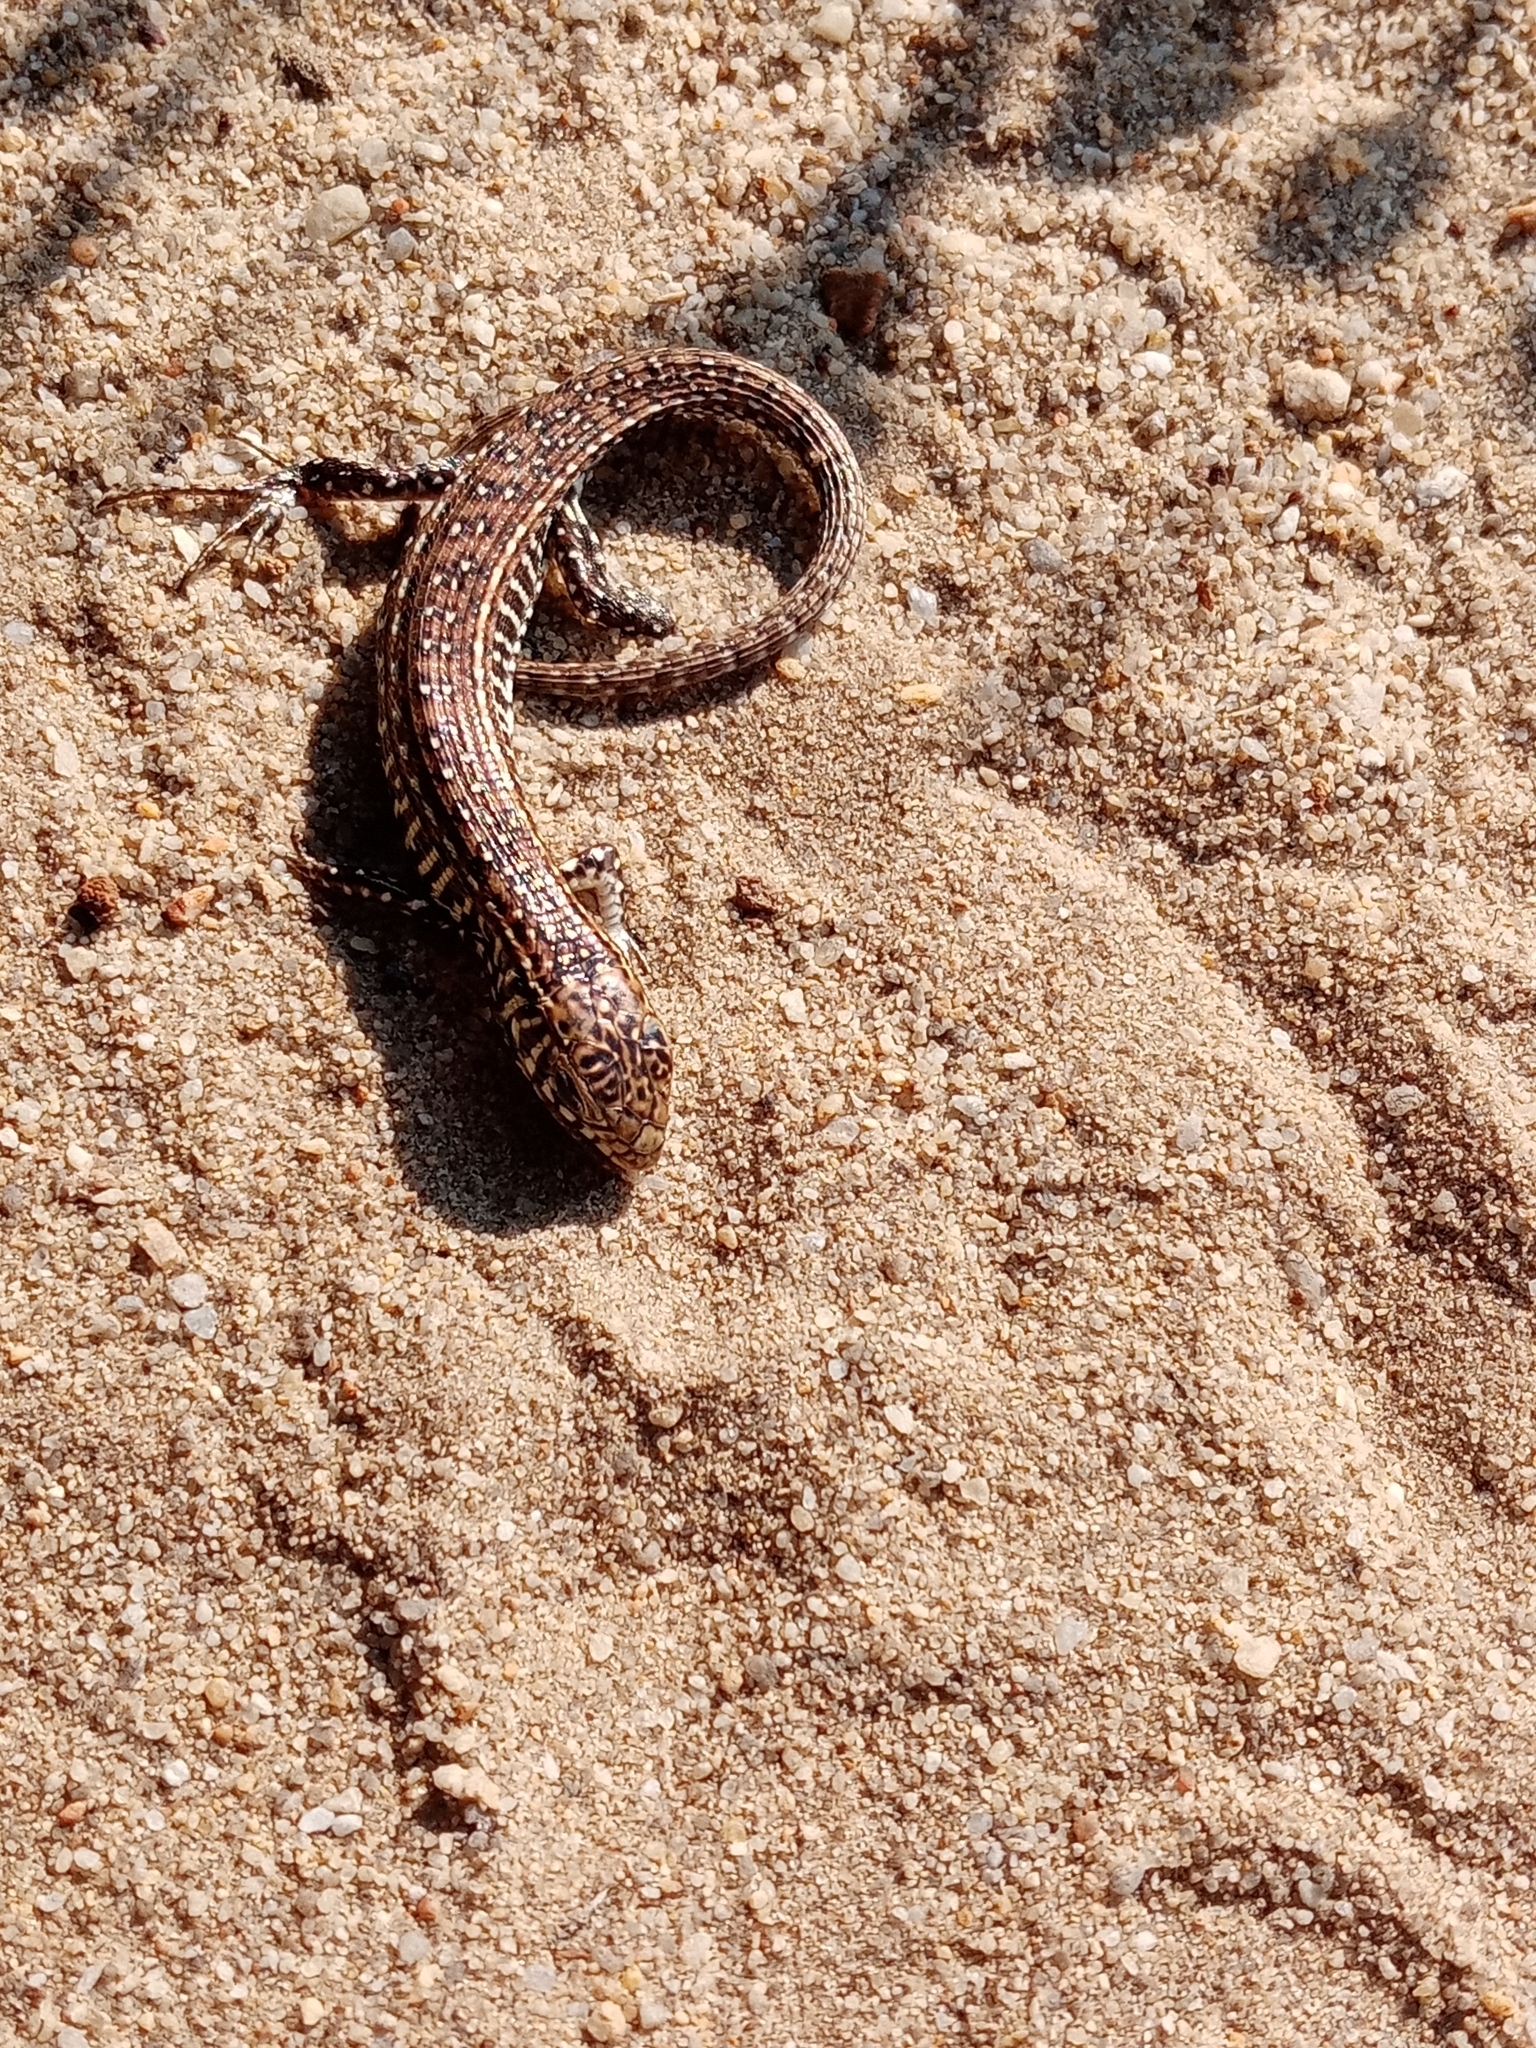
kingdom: Animalia
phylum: Chordata
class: Squamata
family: Gerrhosauridae
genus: Gerrhosaurus
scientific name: Gerrhosaurus flavigularis
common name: Yellow-throated plated lizard
